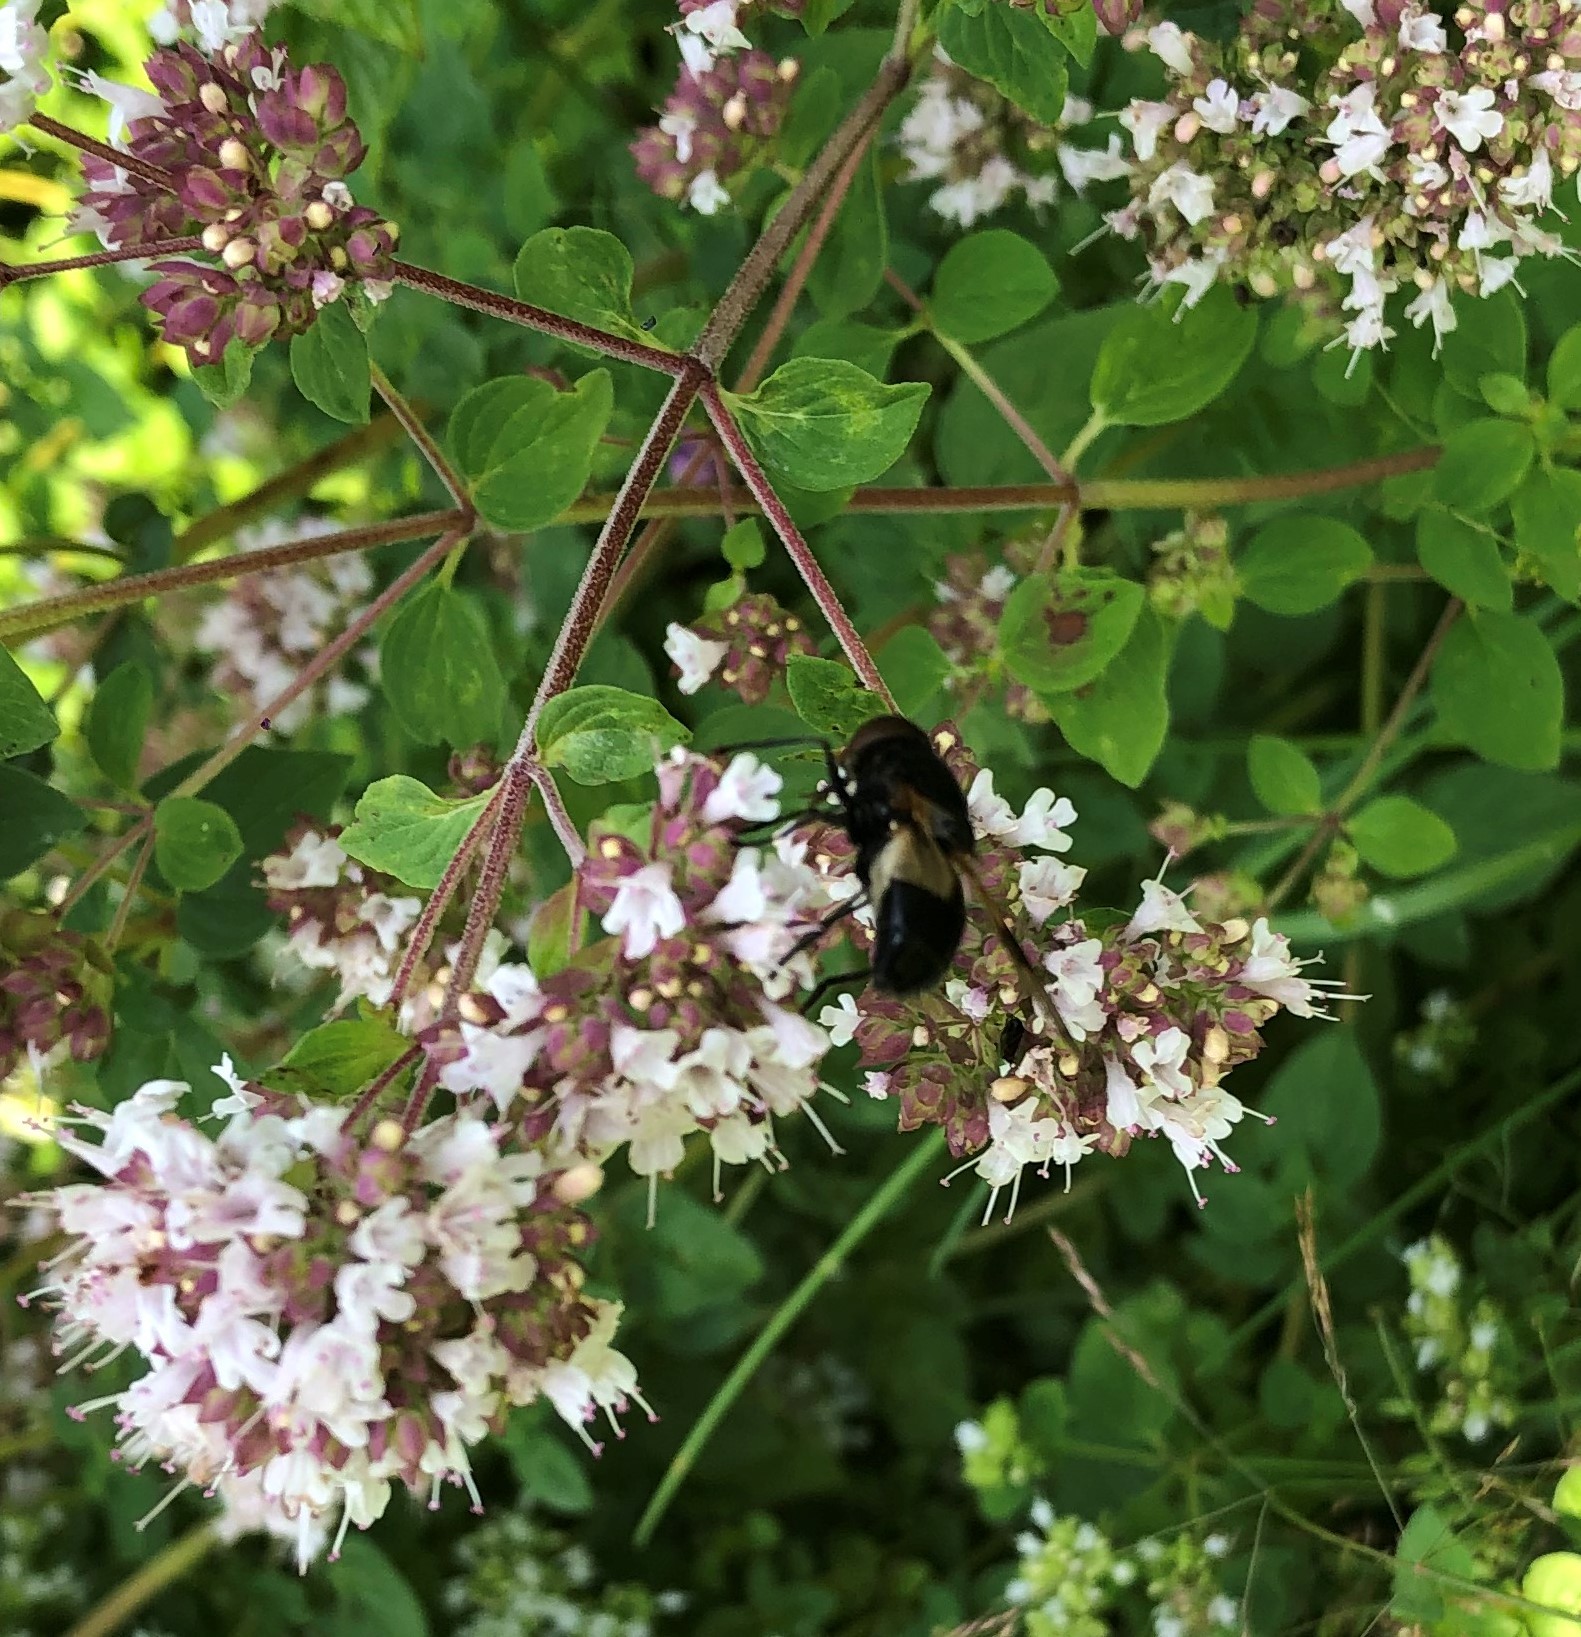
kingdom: Animalia
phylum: Arthropoda
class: Insecta
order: Diptera
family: Syrphidae
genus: Volucella
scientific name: Volucella pellucens
